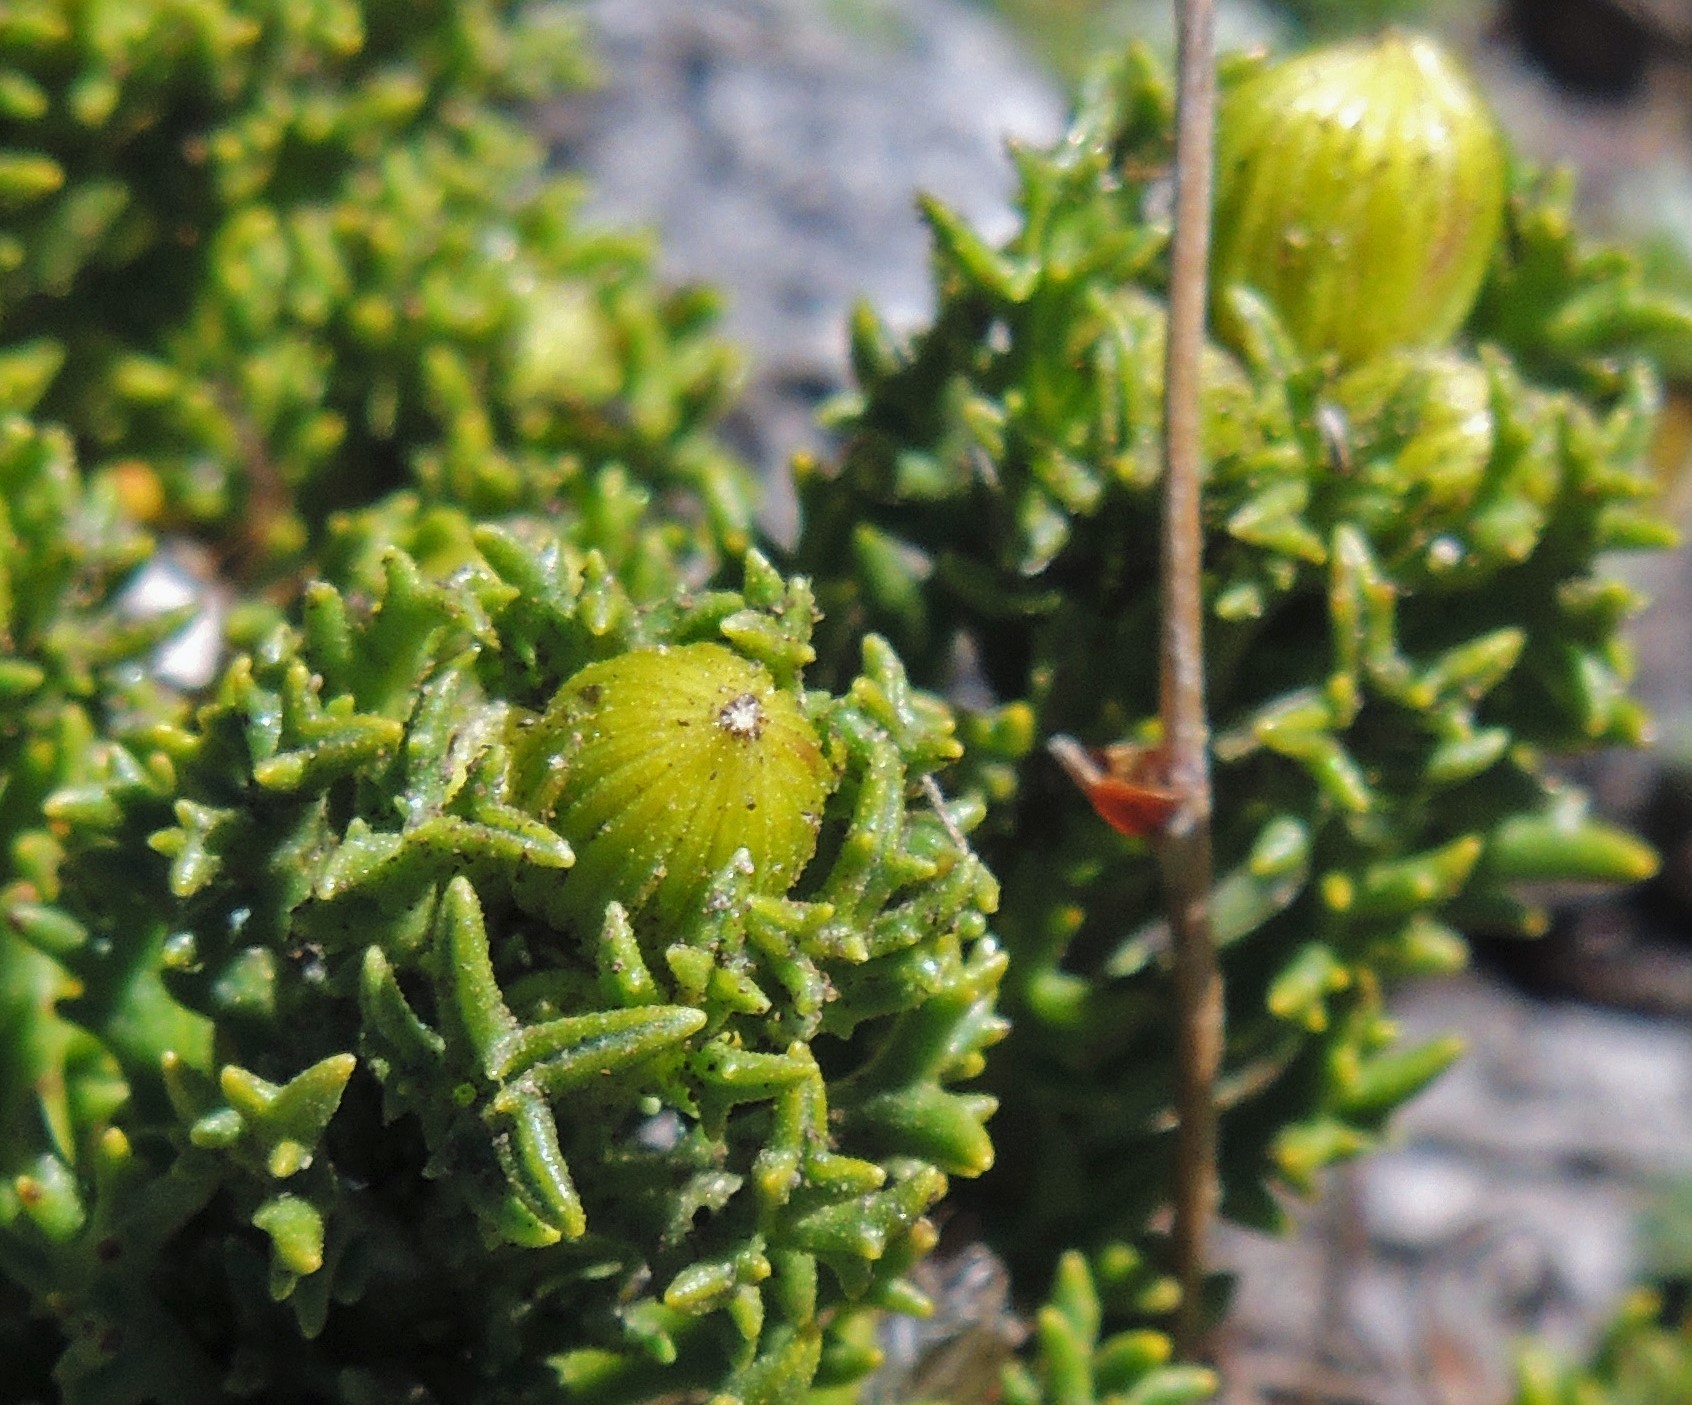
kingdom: Plantae
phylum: Tracheophyta
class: Magnoliopsida
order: Asterales
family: Asteraceae
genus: Senecio
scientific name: Senecio tricuspidatus
